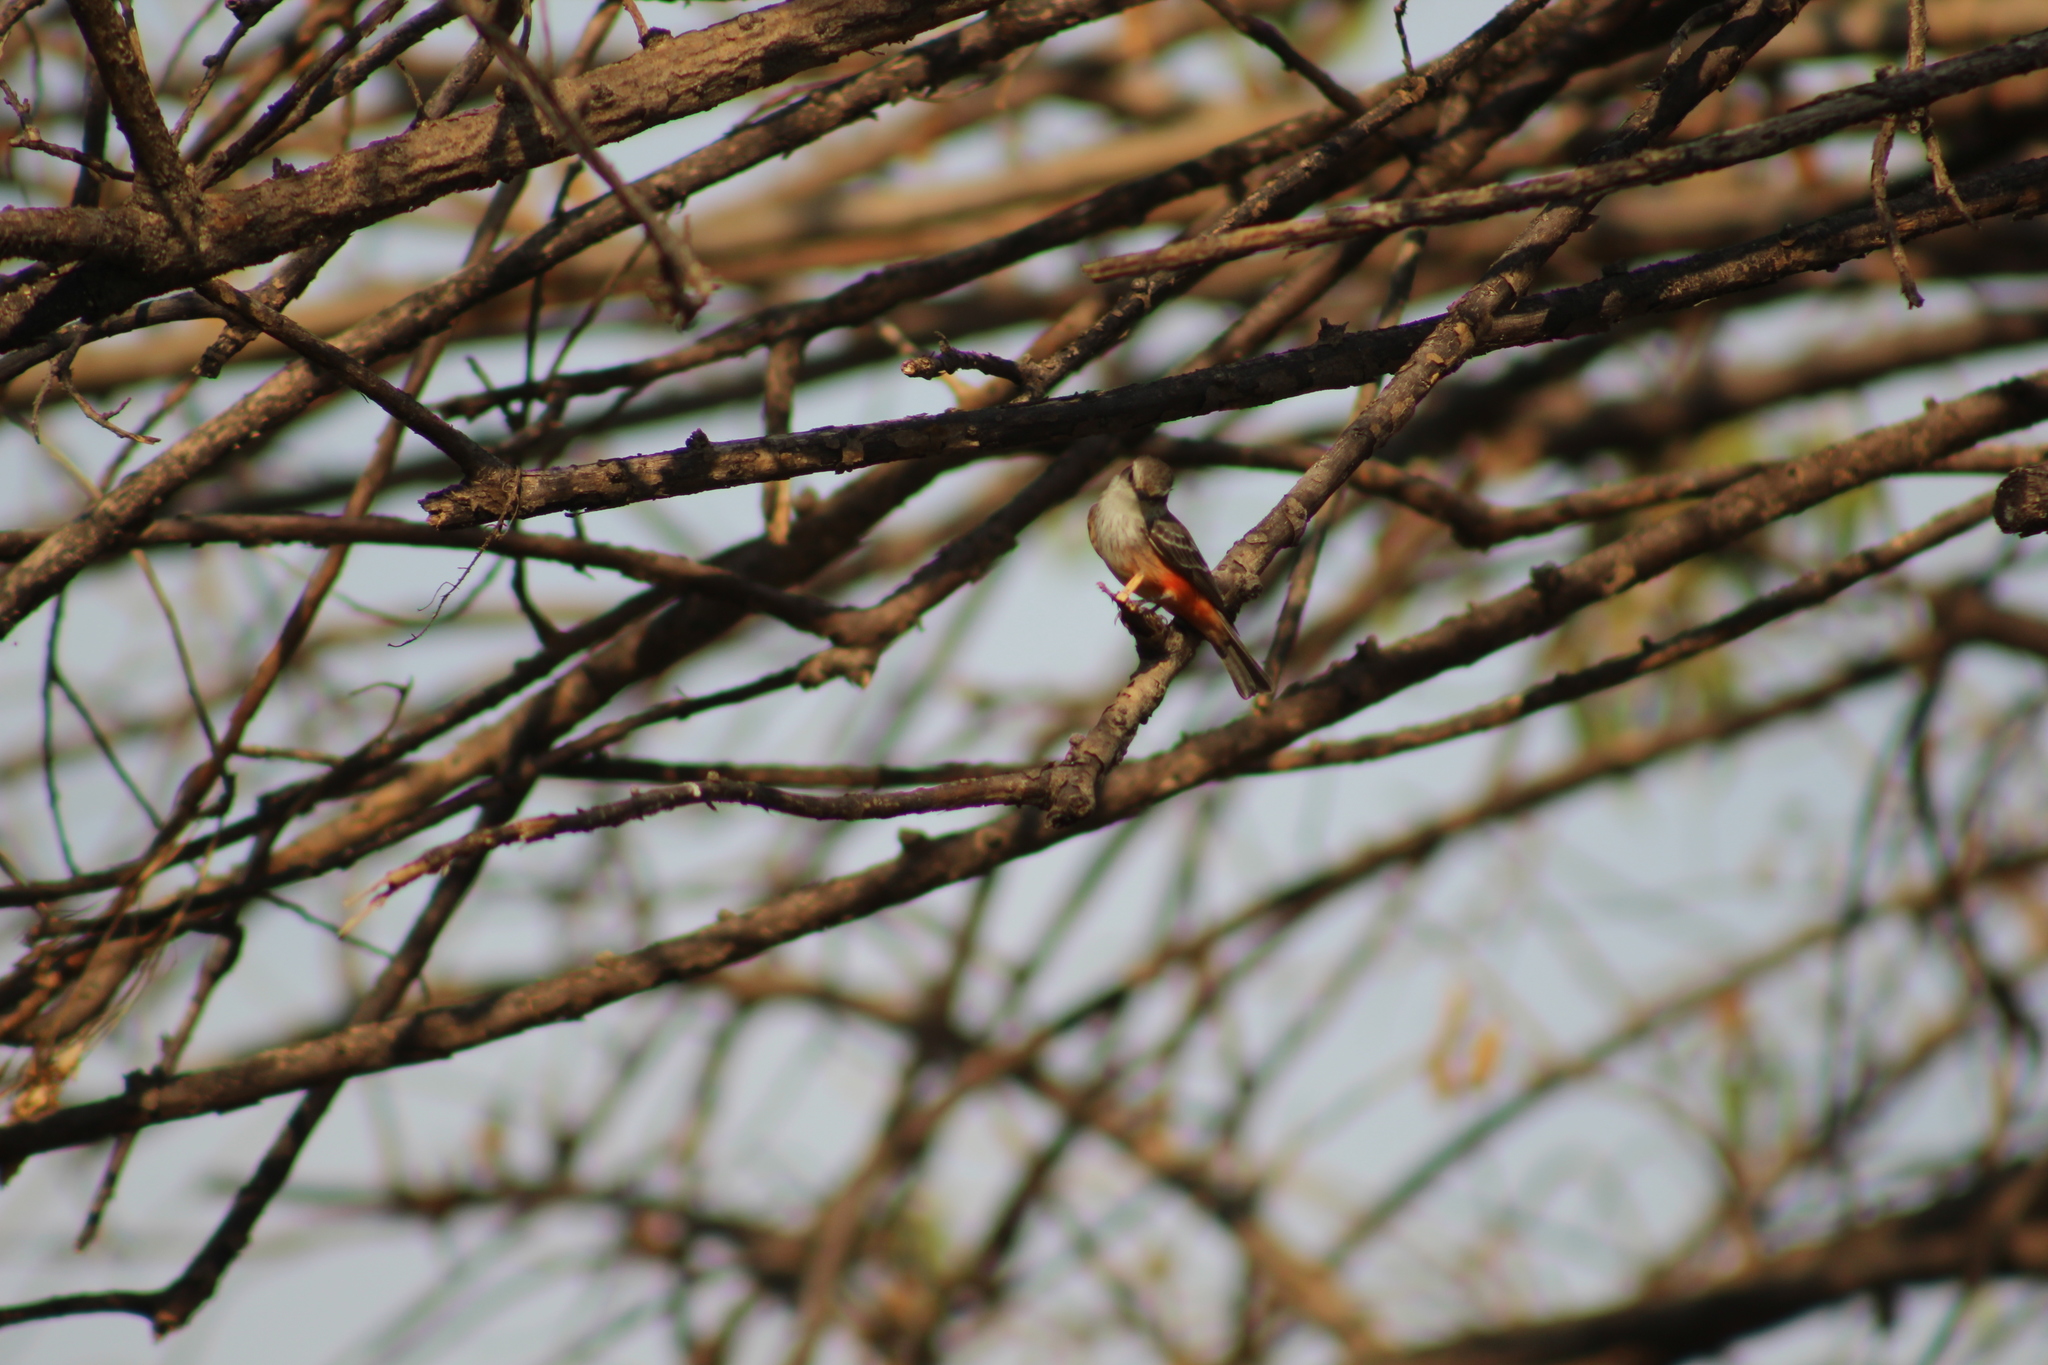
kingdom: Animalia
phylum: Chordata
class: Aves
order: Passeriformes
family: Tyrannidae
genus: Pyrocephalus
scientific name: Pyrocephalus rubinus
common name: Vermilion flycatcher
